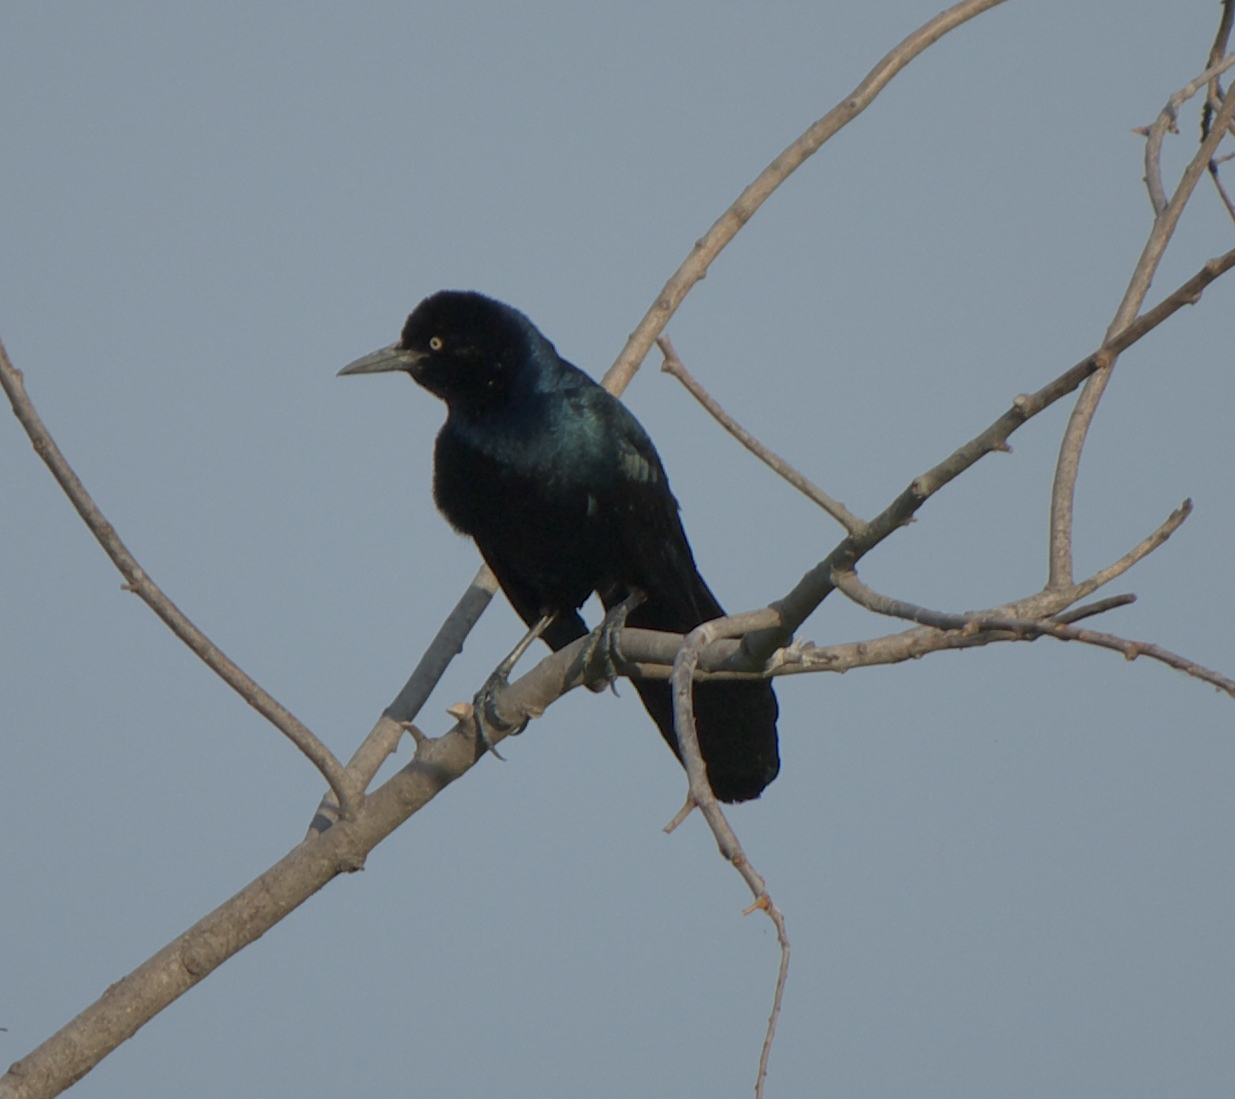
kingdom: Animalia
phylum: Chordata
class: Aves
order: Passeriformes
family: Icteridae
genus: Quiscalus
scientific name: Quiscalus major
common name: Boat-tailed grackle
